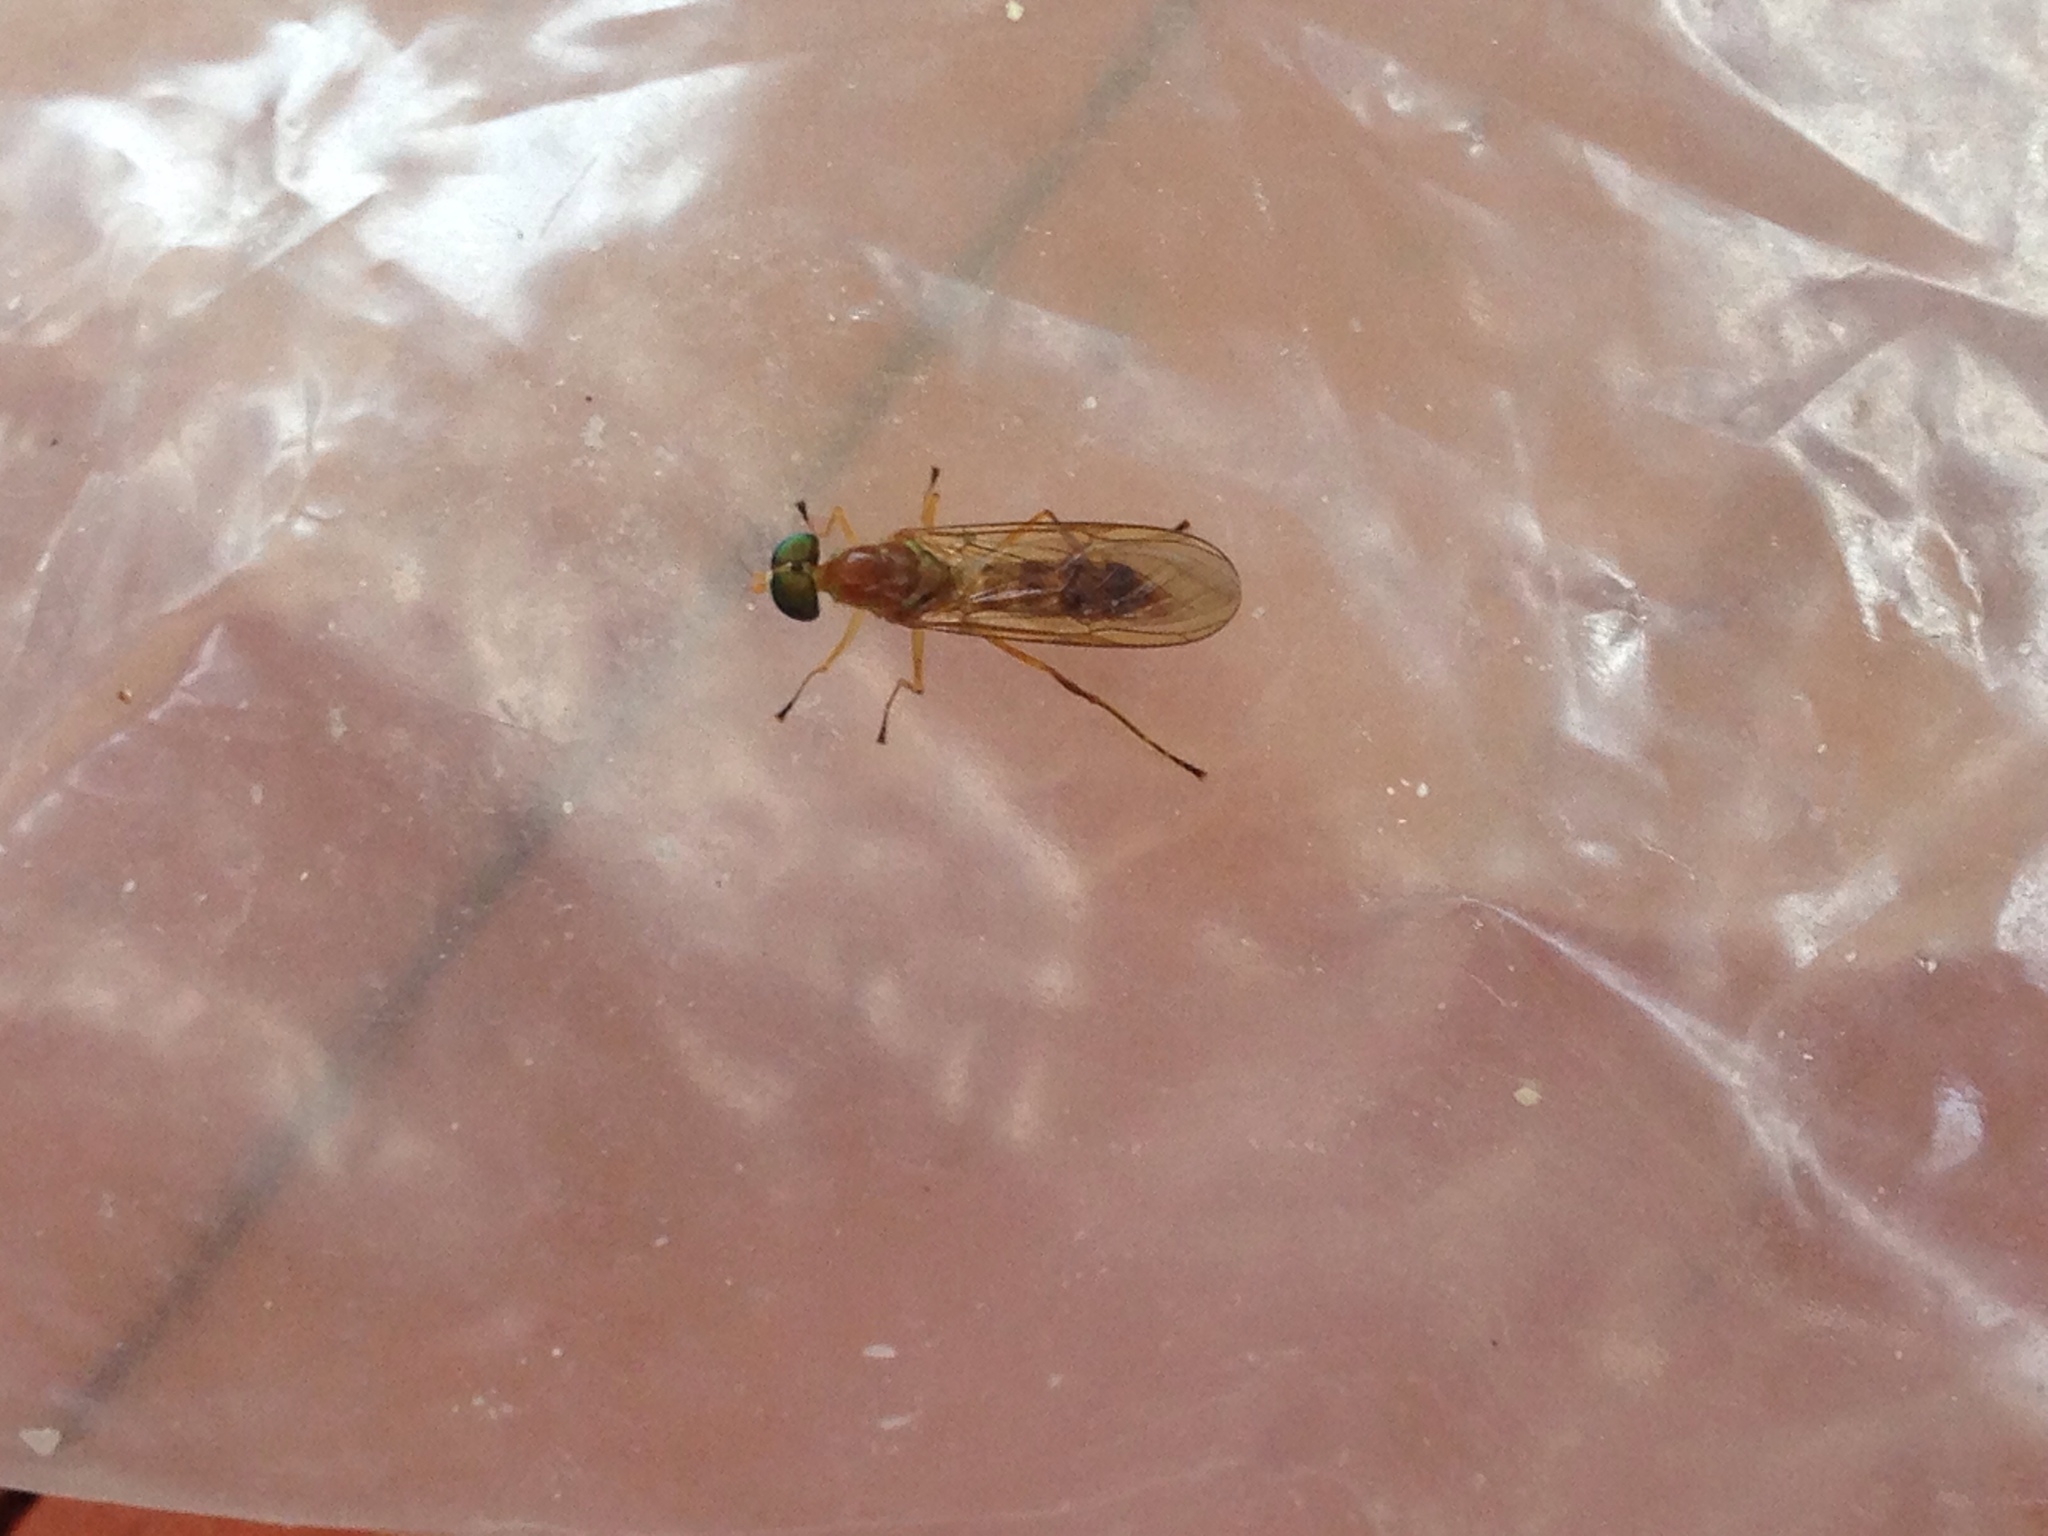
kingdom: Animalia
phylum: Arthropoda
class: Insecta
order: Diptera
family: Stratiomyidae
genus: Ptecticus
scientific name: Ptecticus trivittatus
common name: Compost fly
